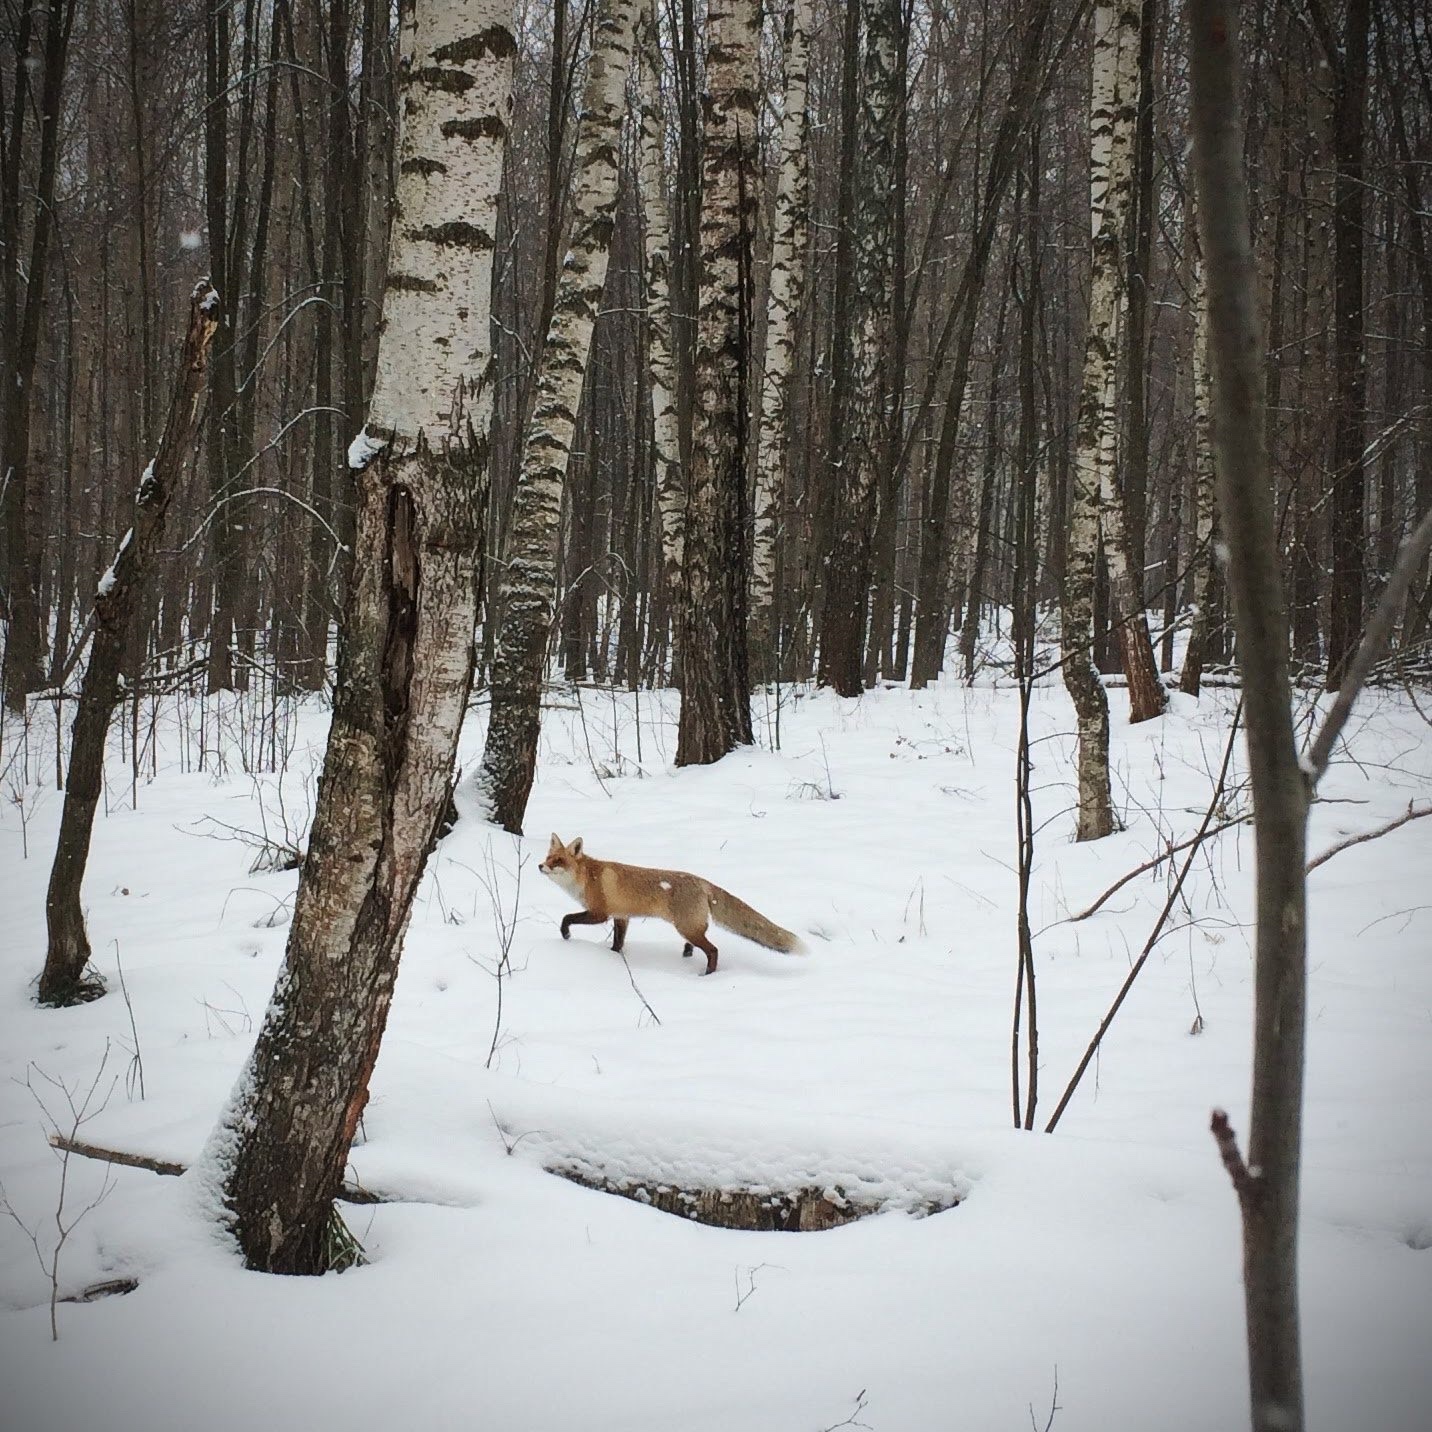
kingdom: Animalia
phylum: Chordata
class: Mammalia
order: Carnivora
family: Canidae
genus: Vulpes
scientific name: Vulpes vulpes
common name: Red fox
